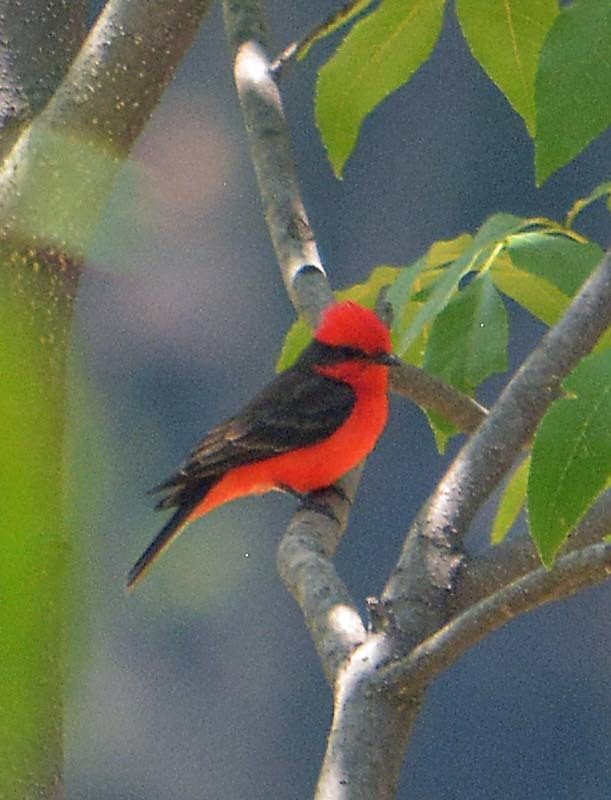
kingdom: Animalia
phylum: Chordata
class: Aves
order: Passeriformes
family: Tyrannidae
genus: Pyrocephalus
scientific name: Pyrocephalus rubinus
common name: Vermilion flycatcher
